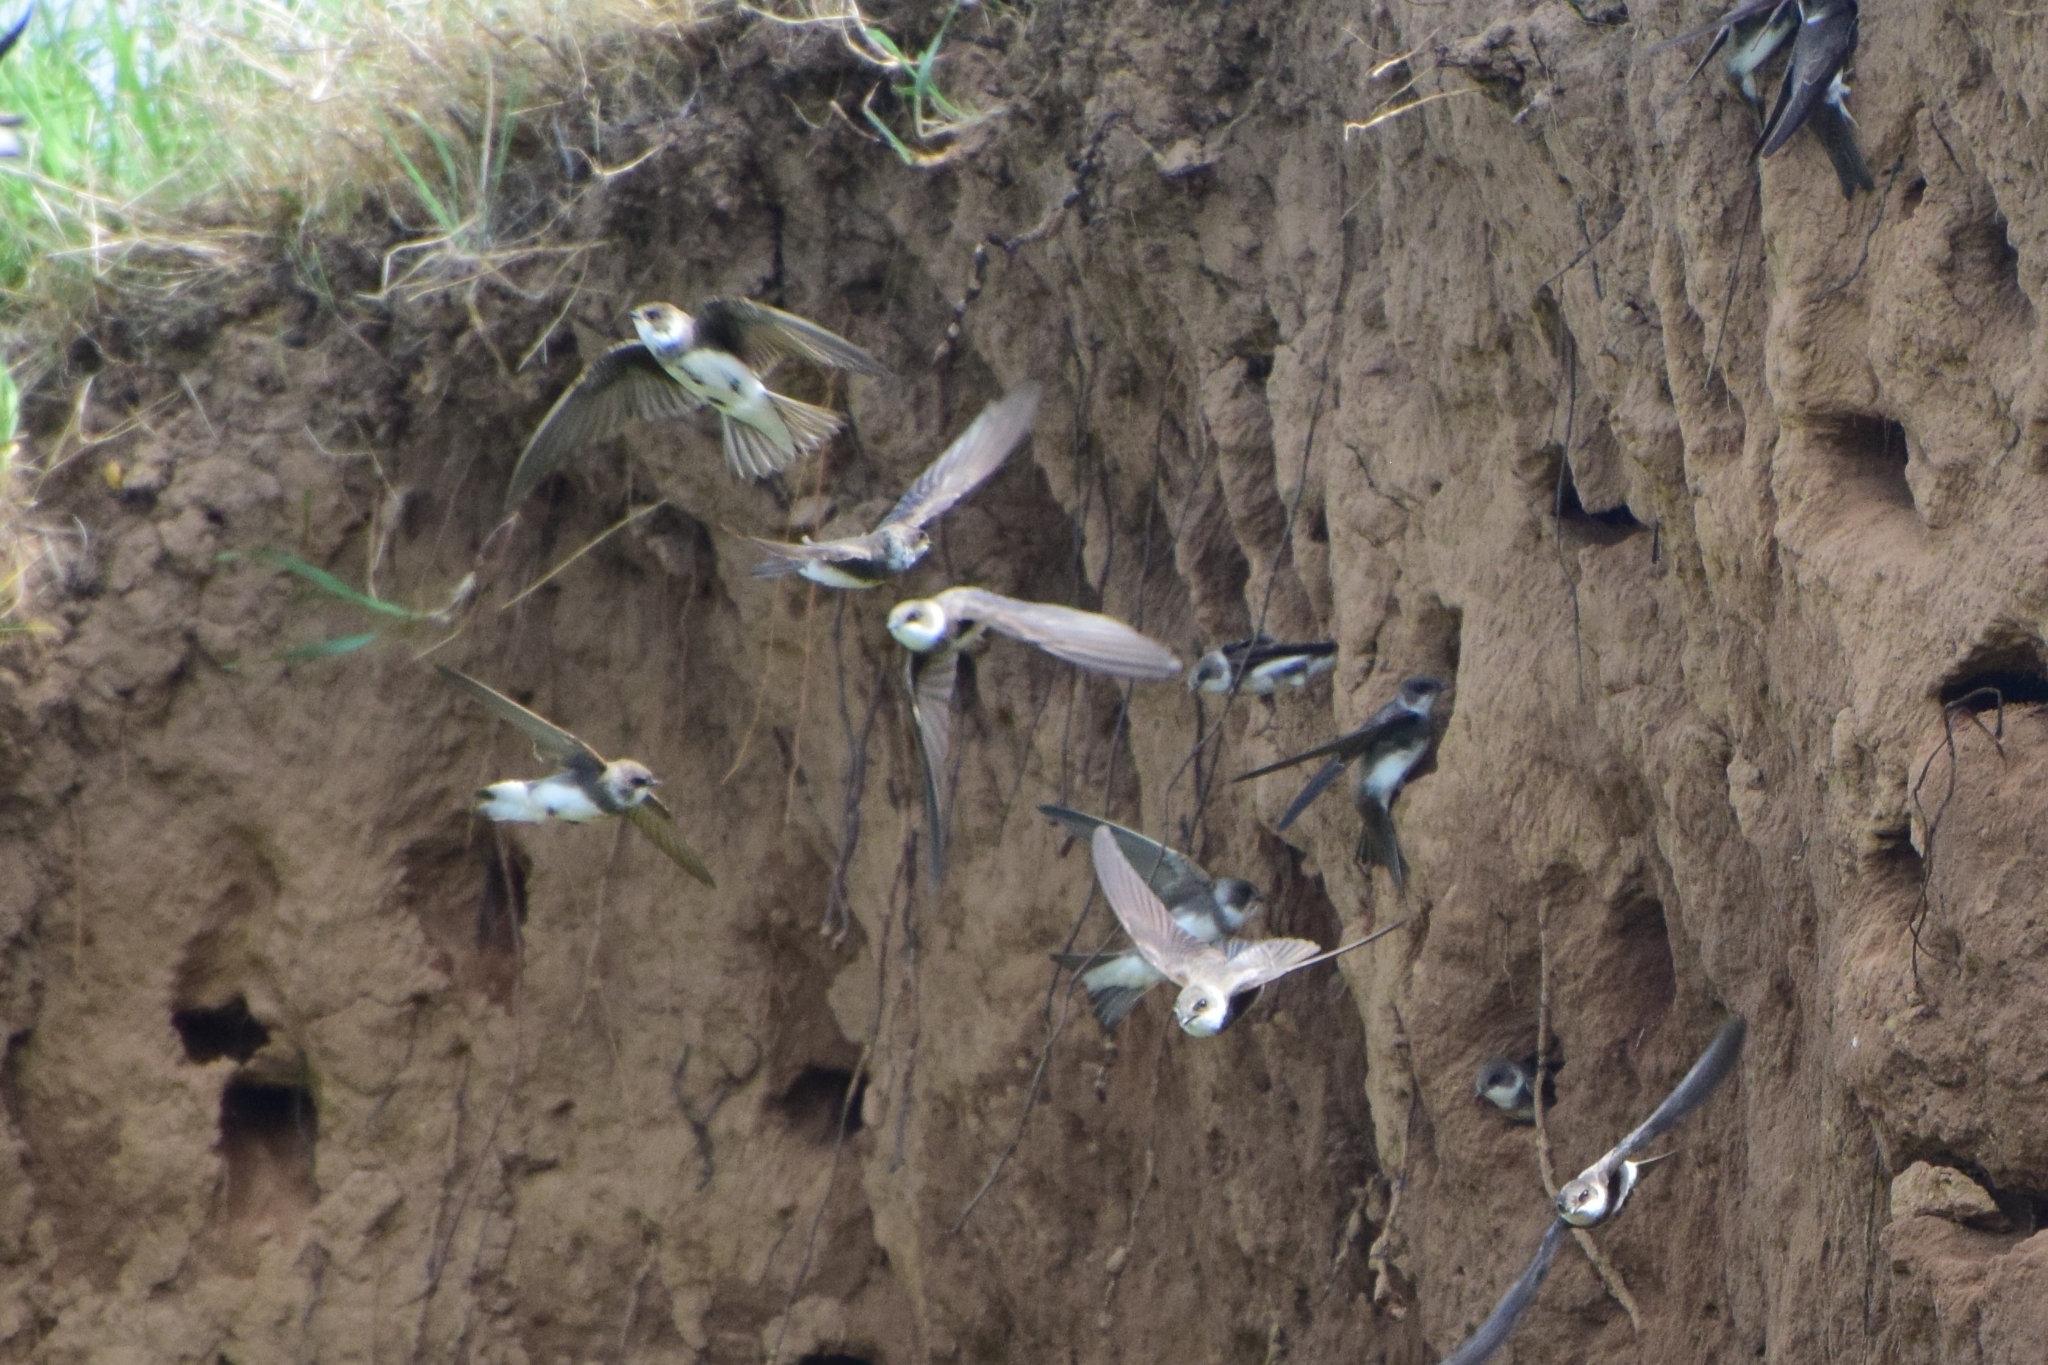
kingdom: Animalia
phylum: Chordata
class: Aves
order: Passeriformes
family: Hirundinidae
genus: Riparia
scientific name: Riparia riparia
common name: Sand martin
